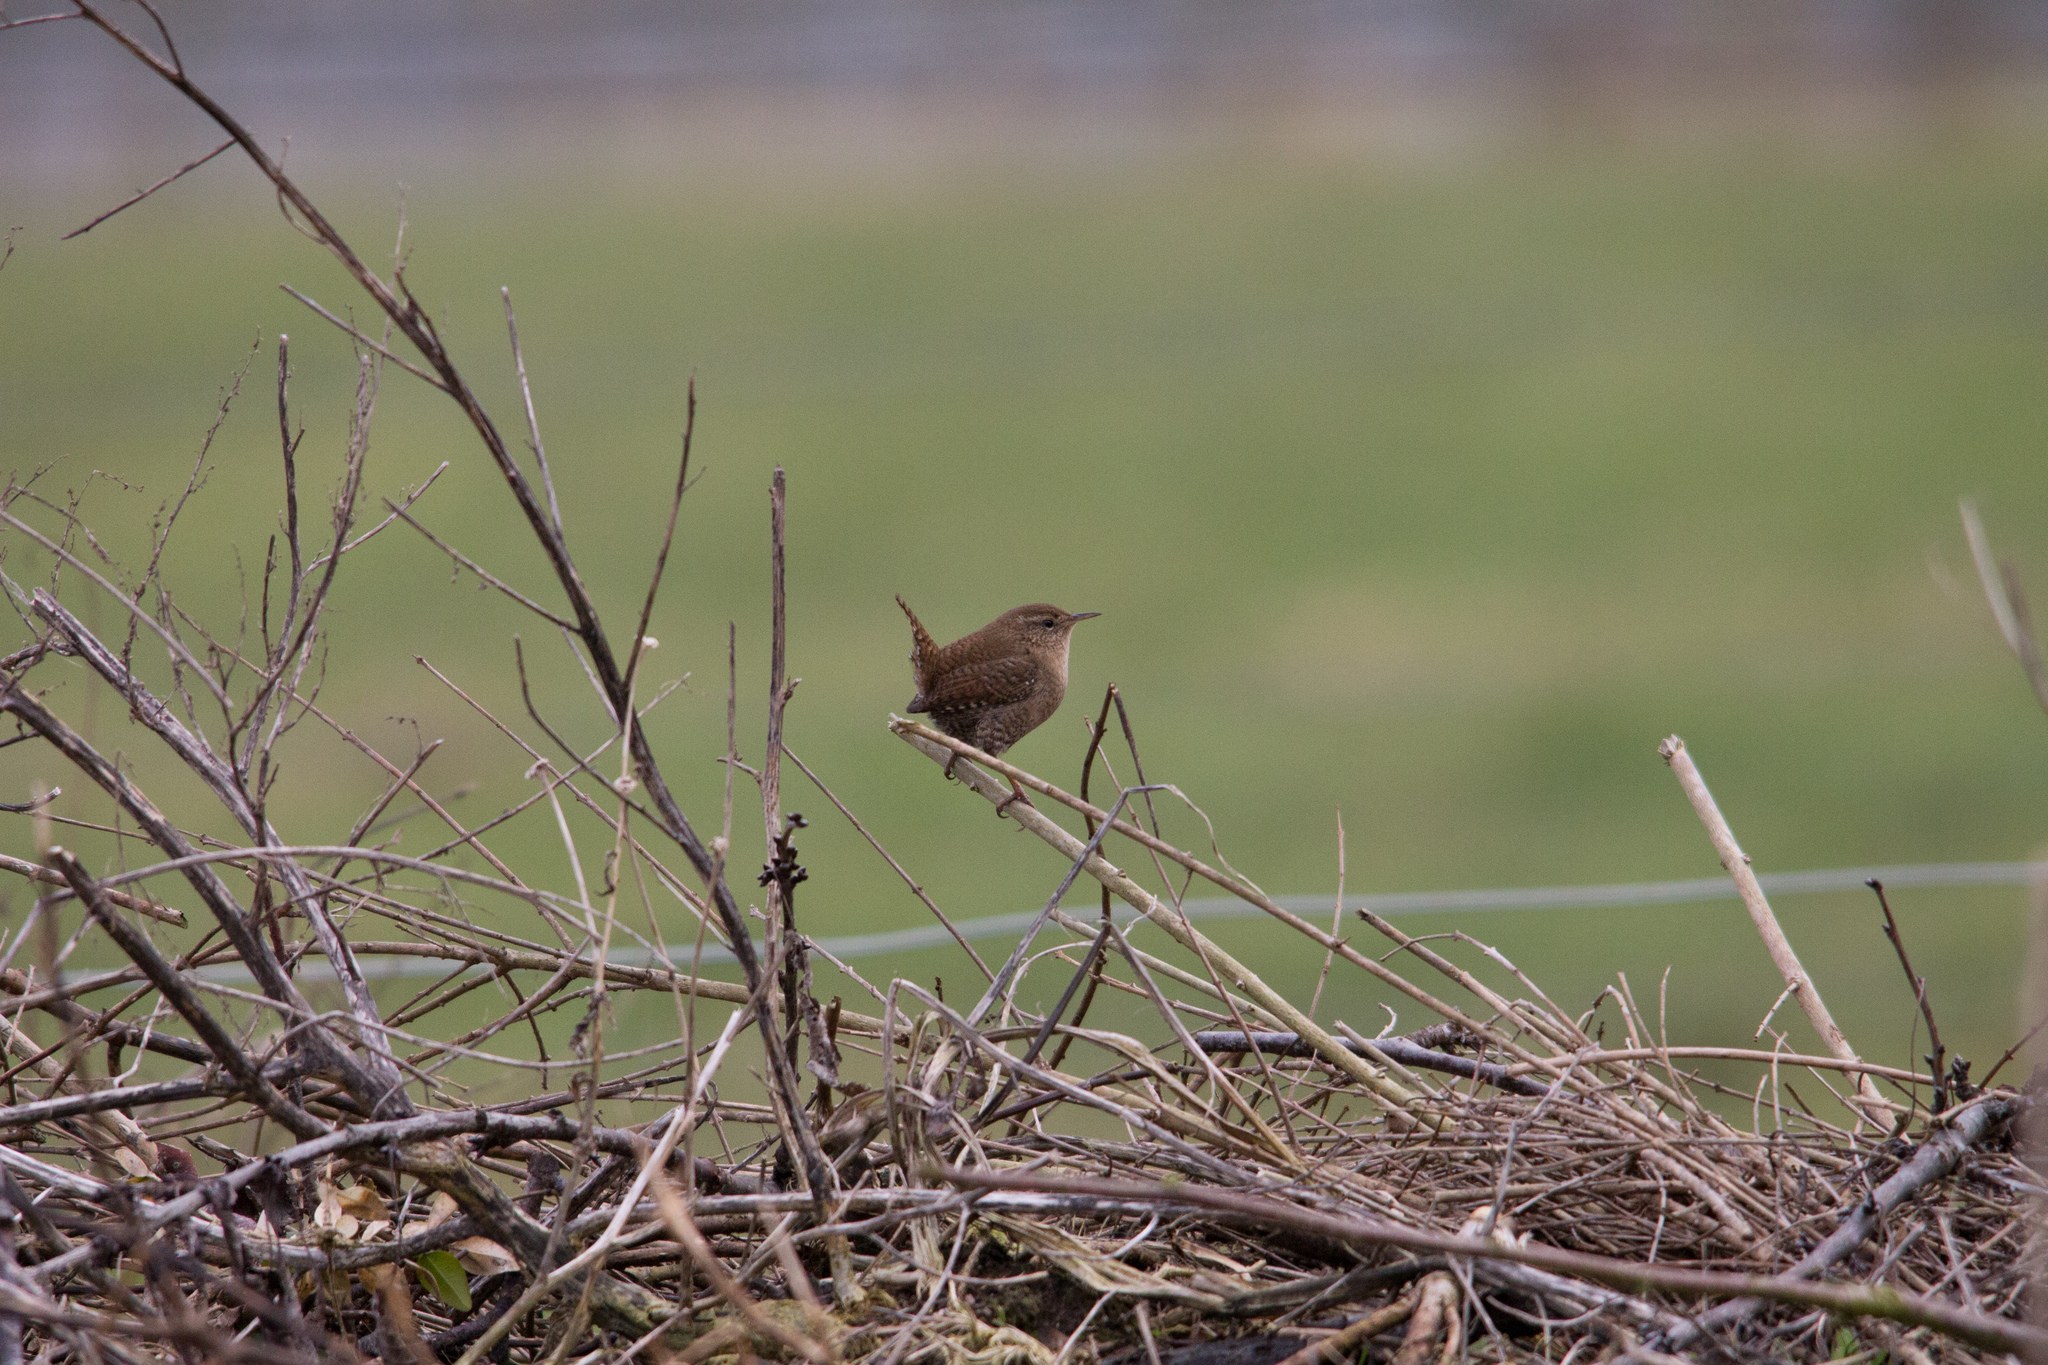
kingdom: Animalia
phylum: Chordata
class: Aves
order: Passeriformes
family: Troglodytidae
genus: Troglodytes
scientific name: Troglodytes troglodytes
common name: Eurasian wren
